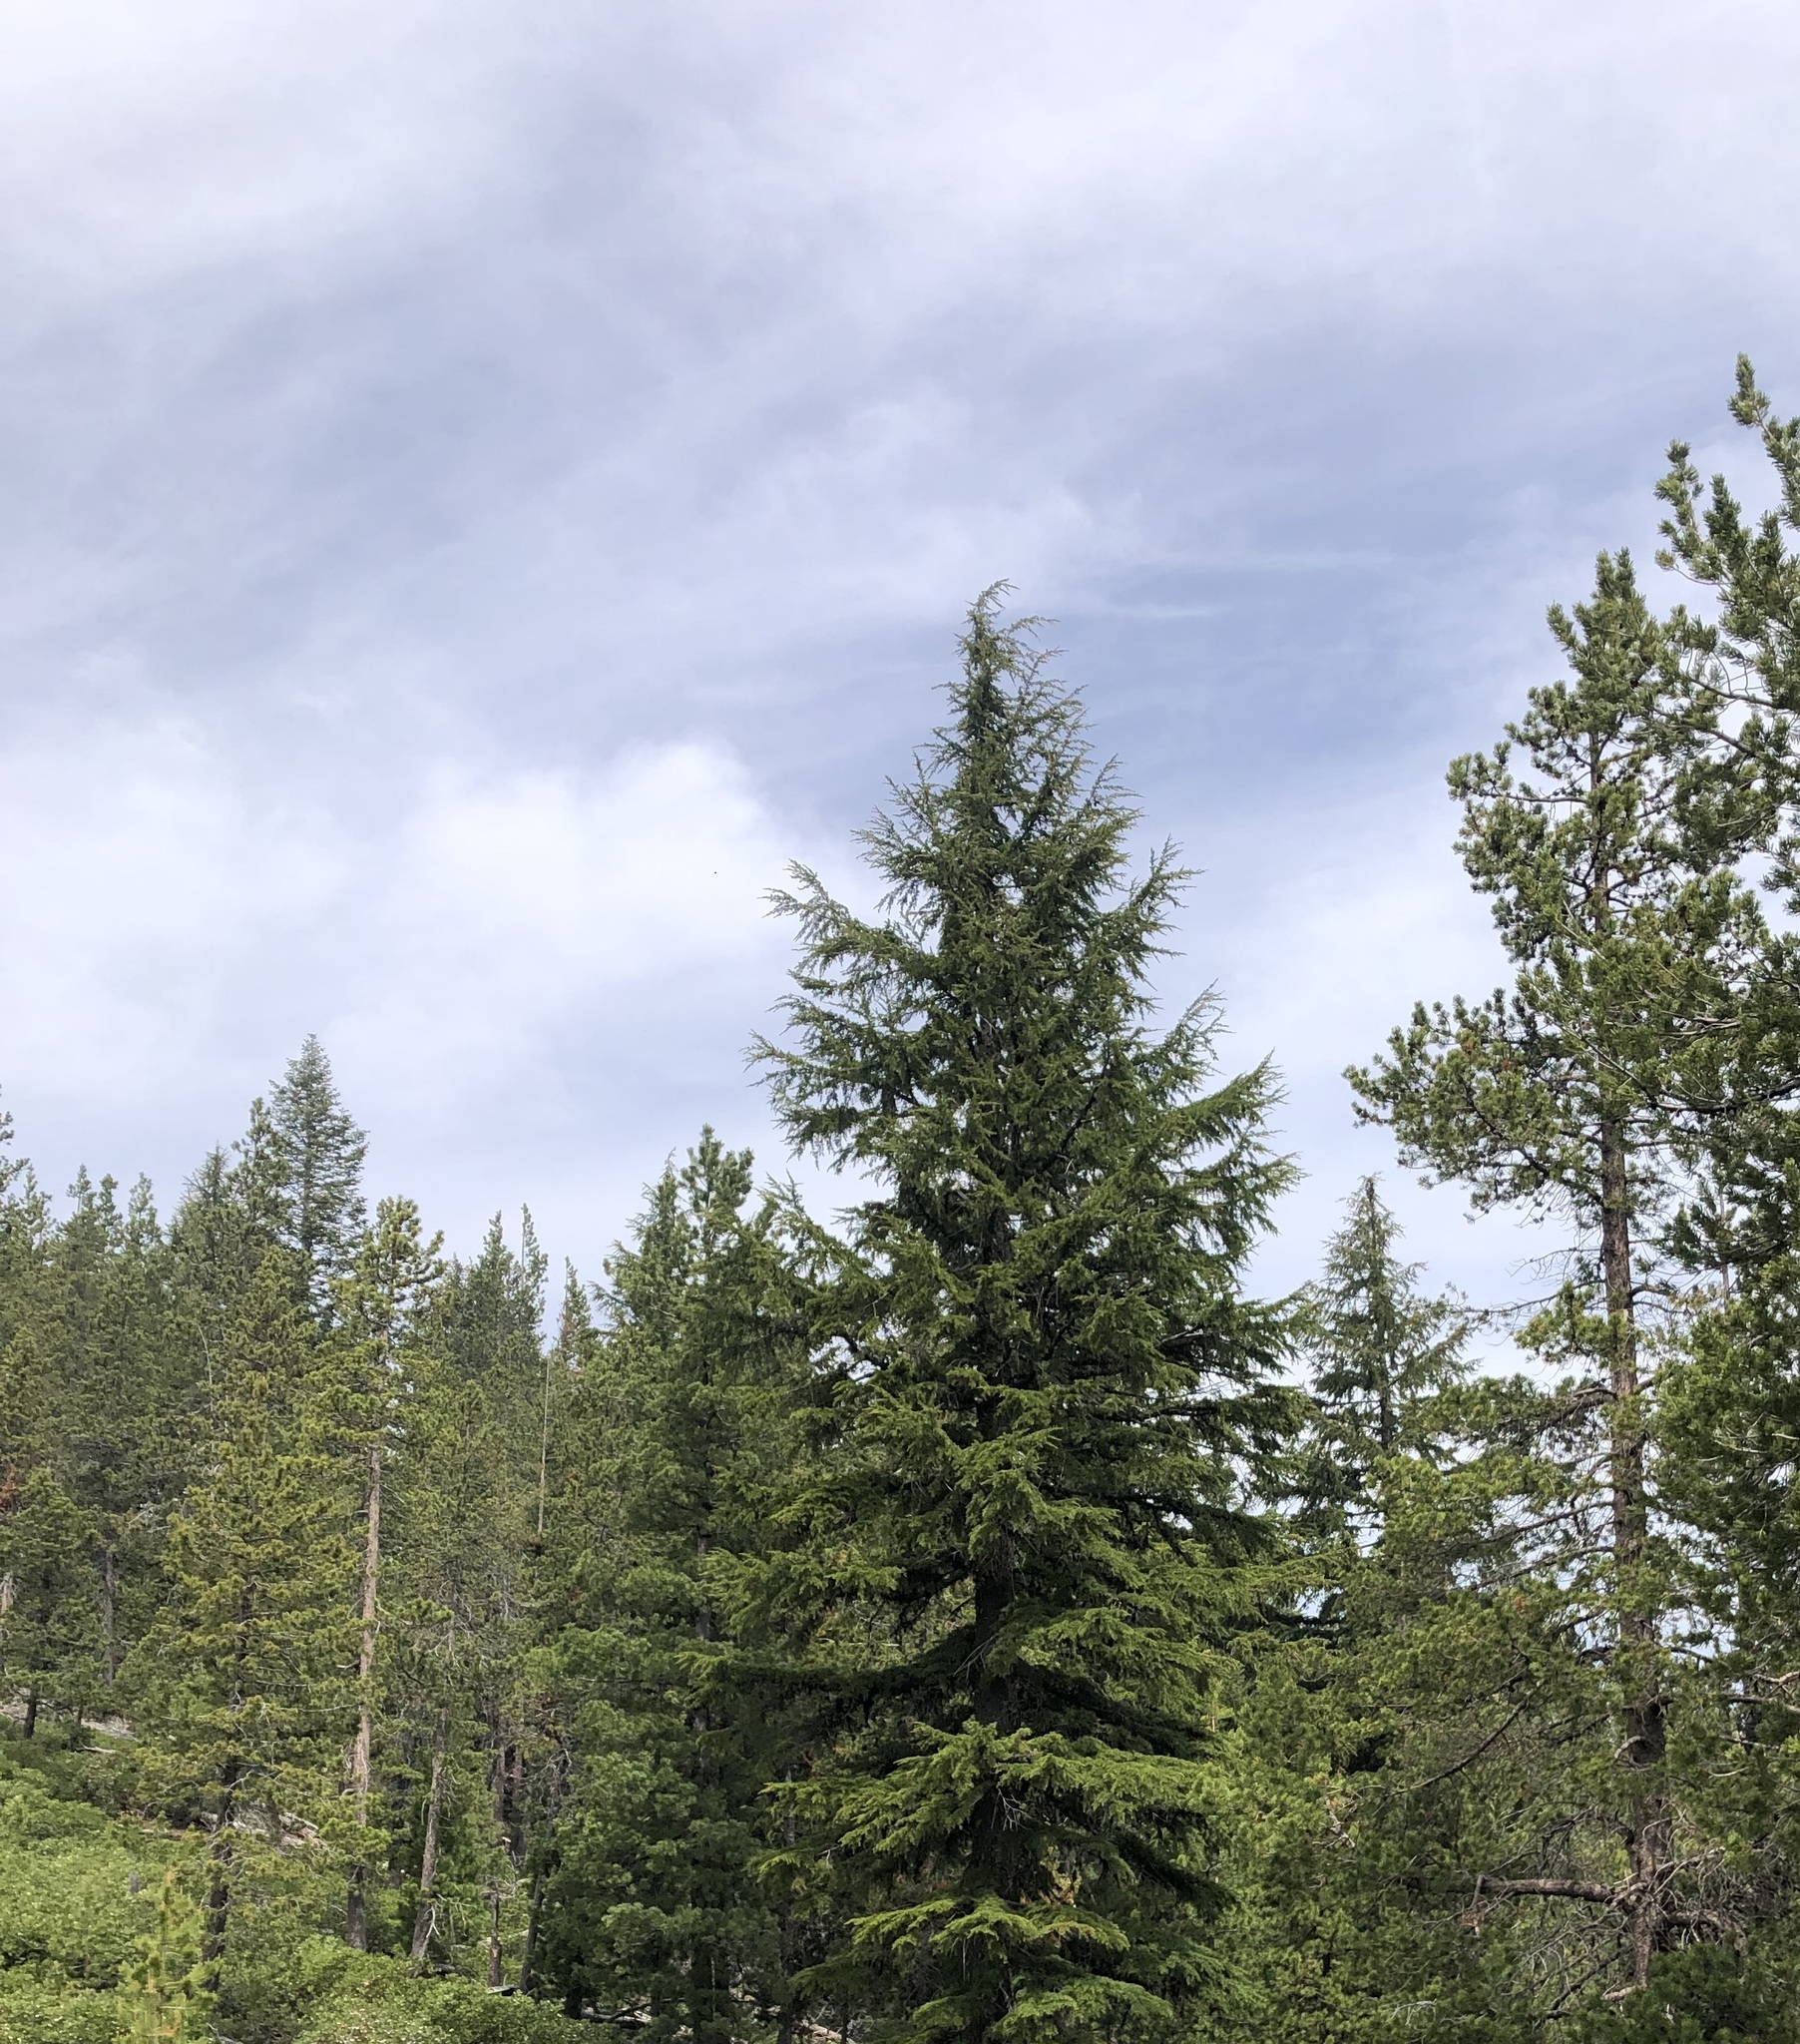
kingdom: Plantae
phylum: Tracheophyta
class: Pinopsida
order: Pinales
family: Pinaceae
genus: Tsuga
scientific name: Tsuga mertensiana
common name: Mountain hemlock
